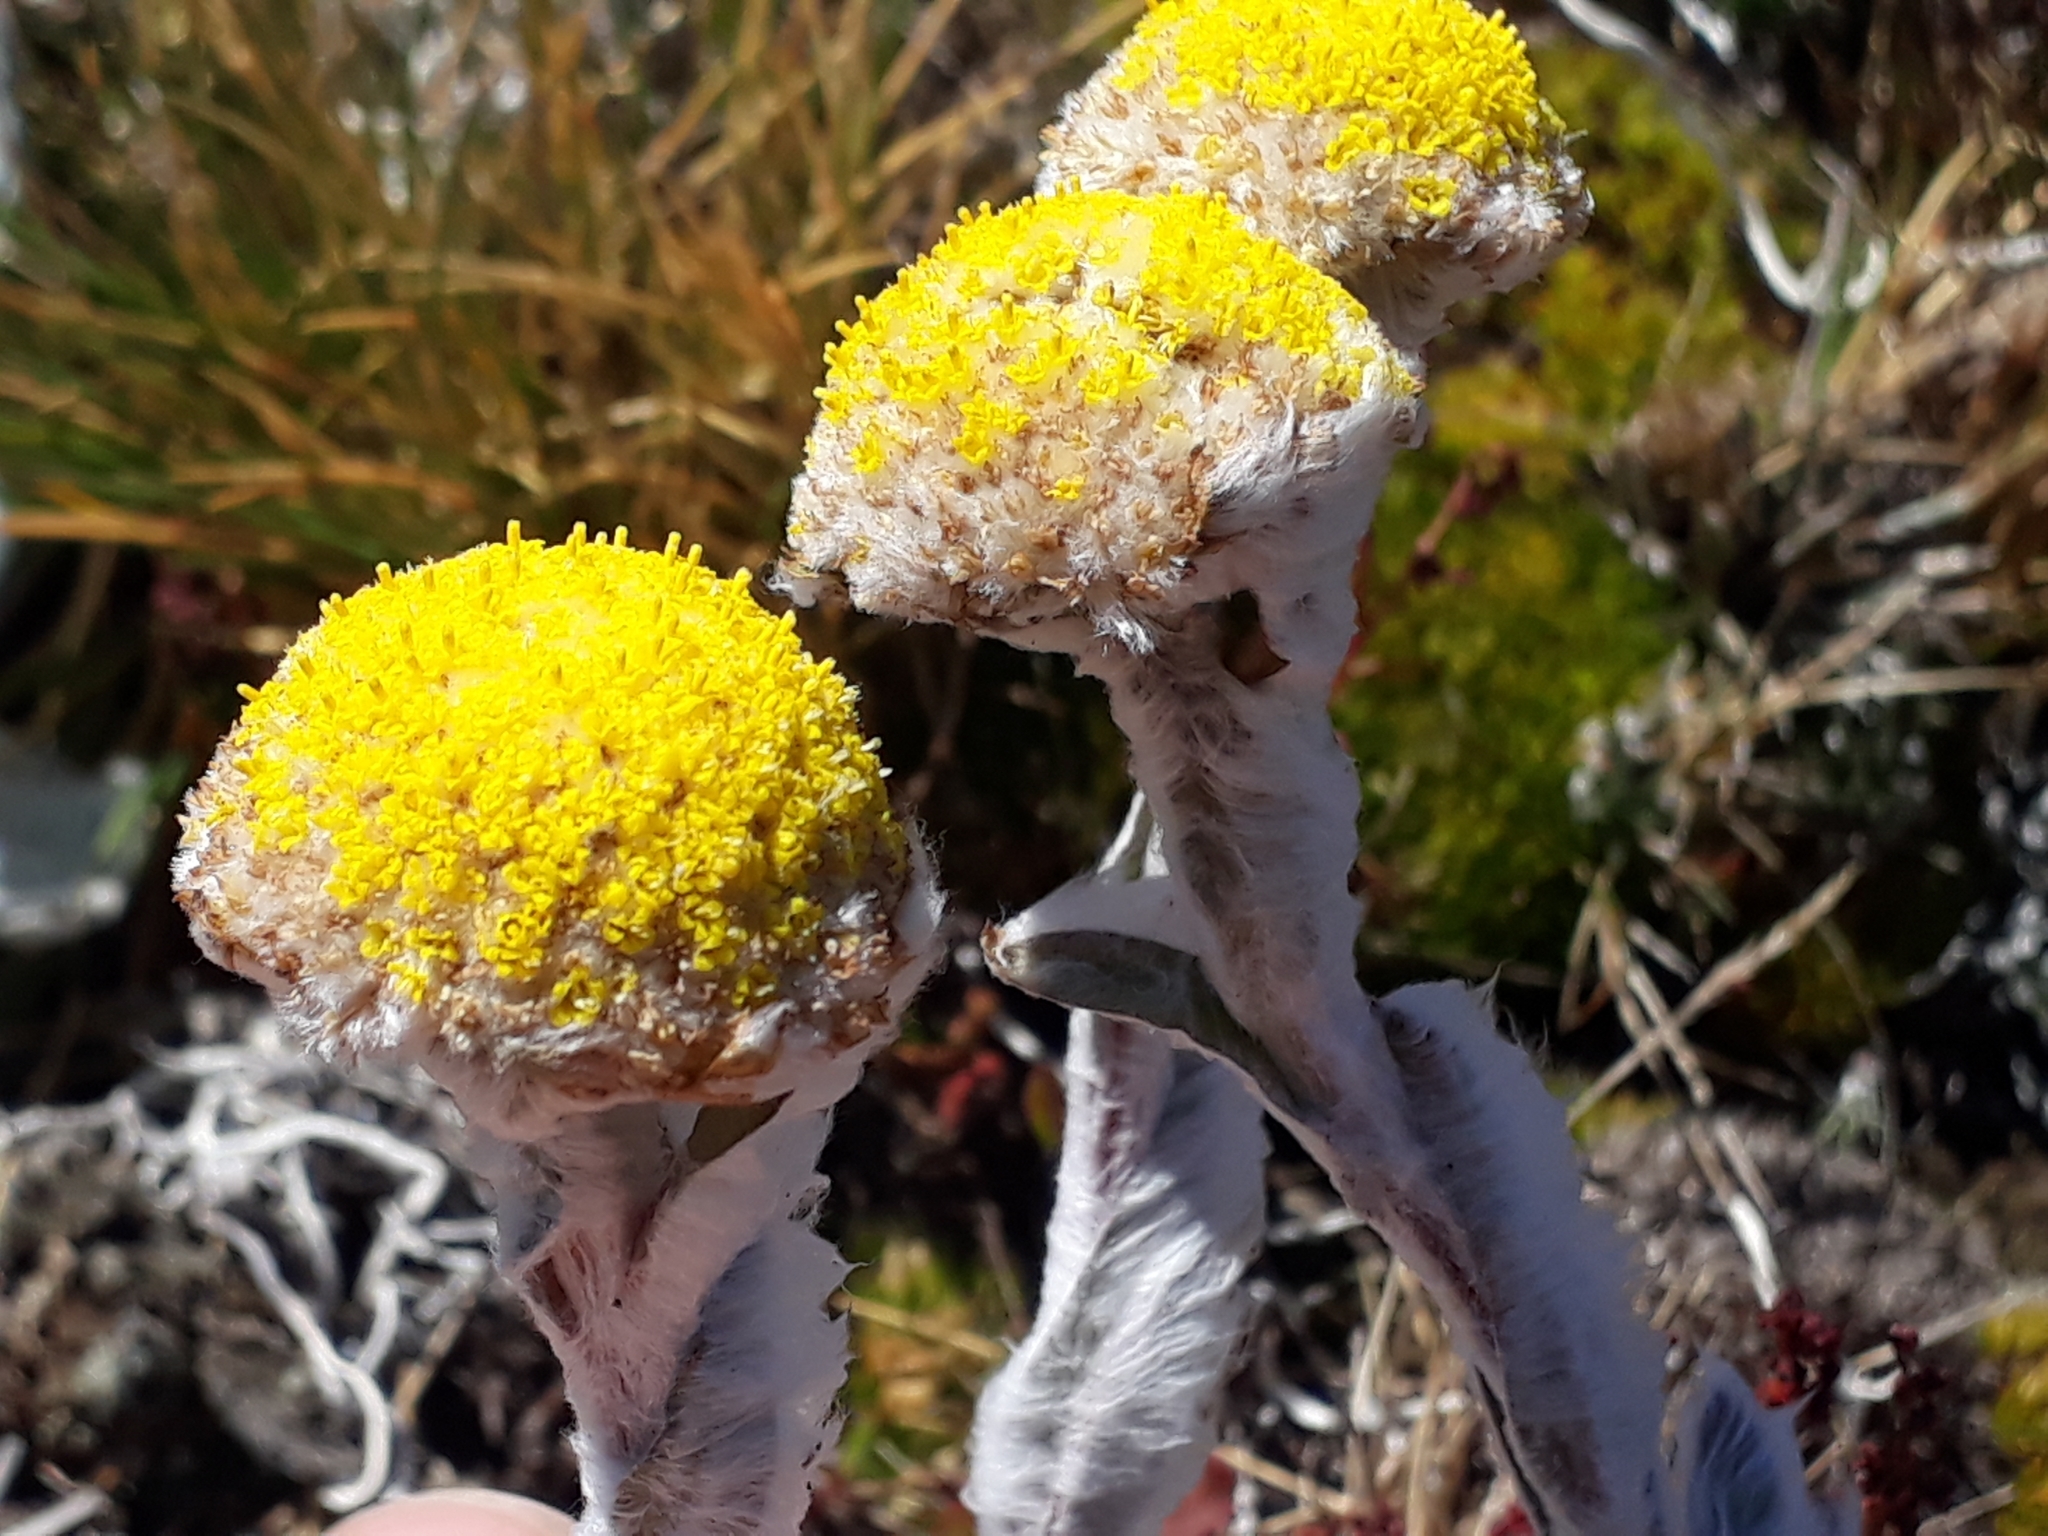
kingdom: Plantae
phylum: Tracheophyta
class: Magnoliopsida
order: Asterales
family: Asteraceae
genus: Craspedia
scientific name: Craspedia lanata
